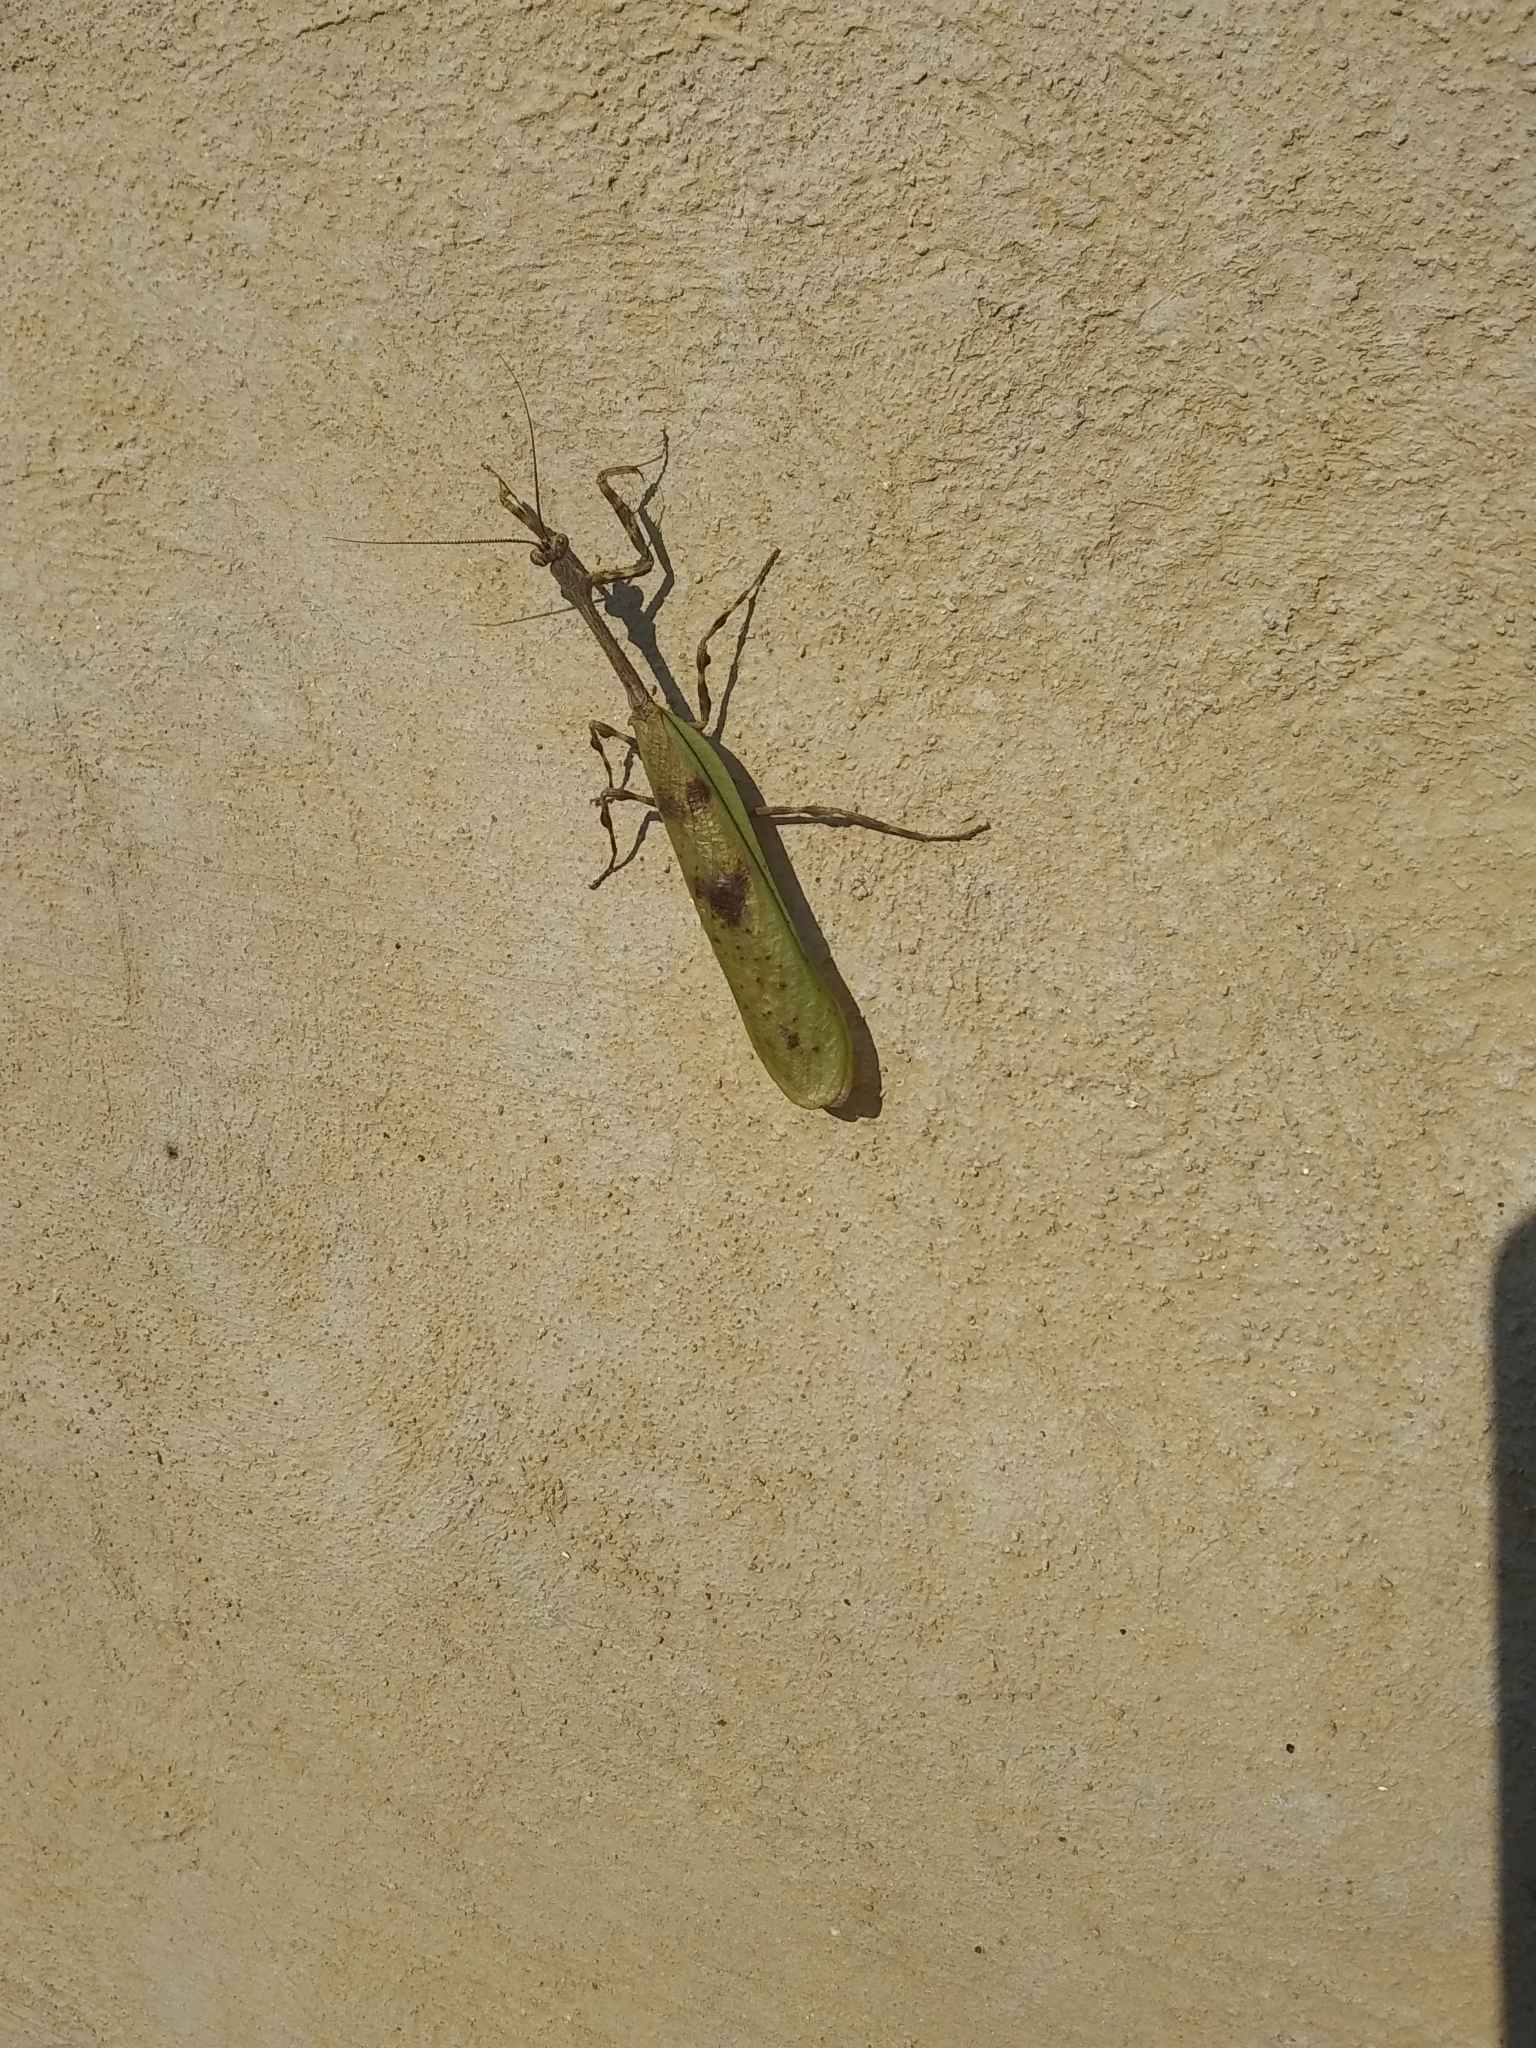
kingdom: Animalia
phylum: Arthropoda
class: Insecta
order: Mantodea
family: Mantidae
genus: Pseudovates
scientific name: Pseudovates tolteca
